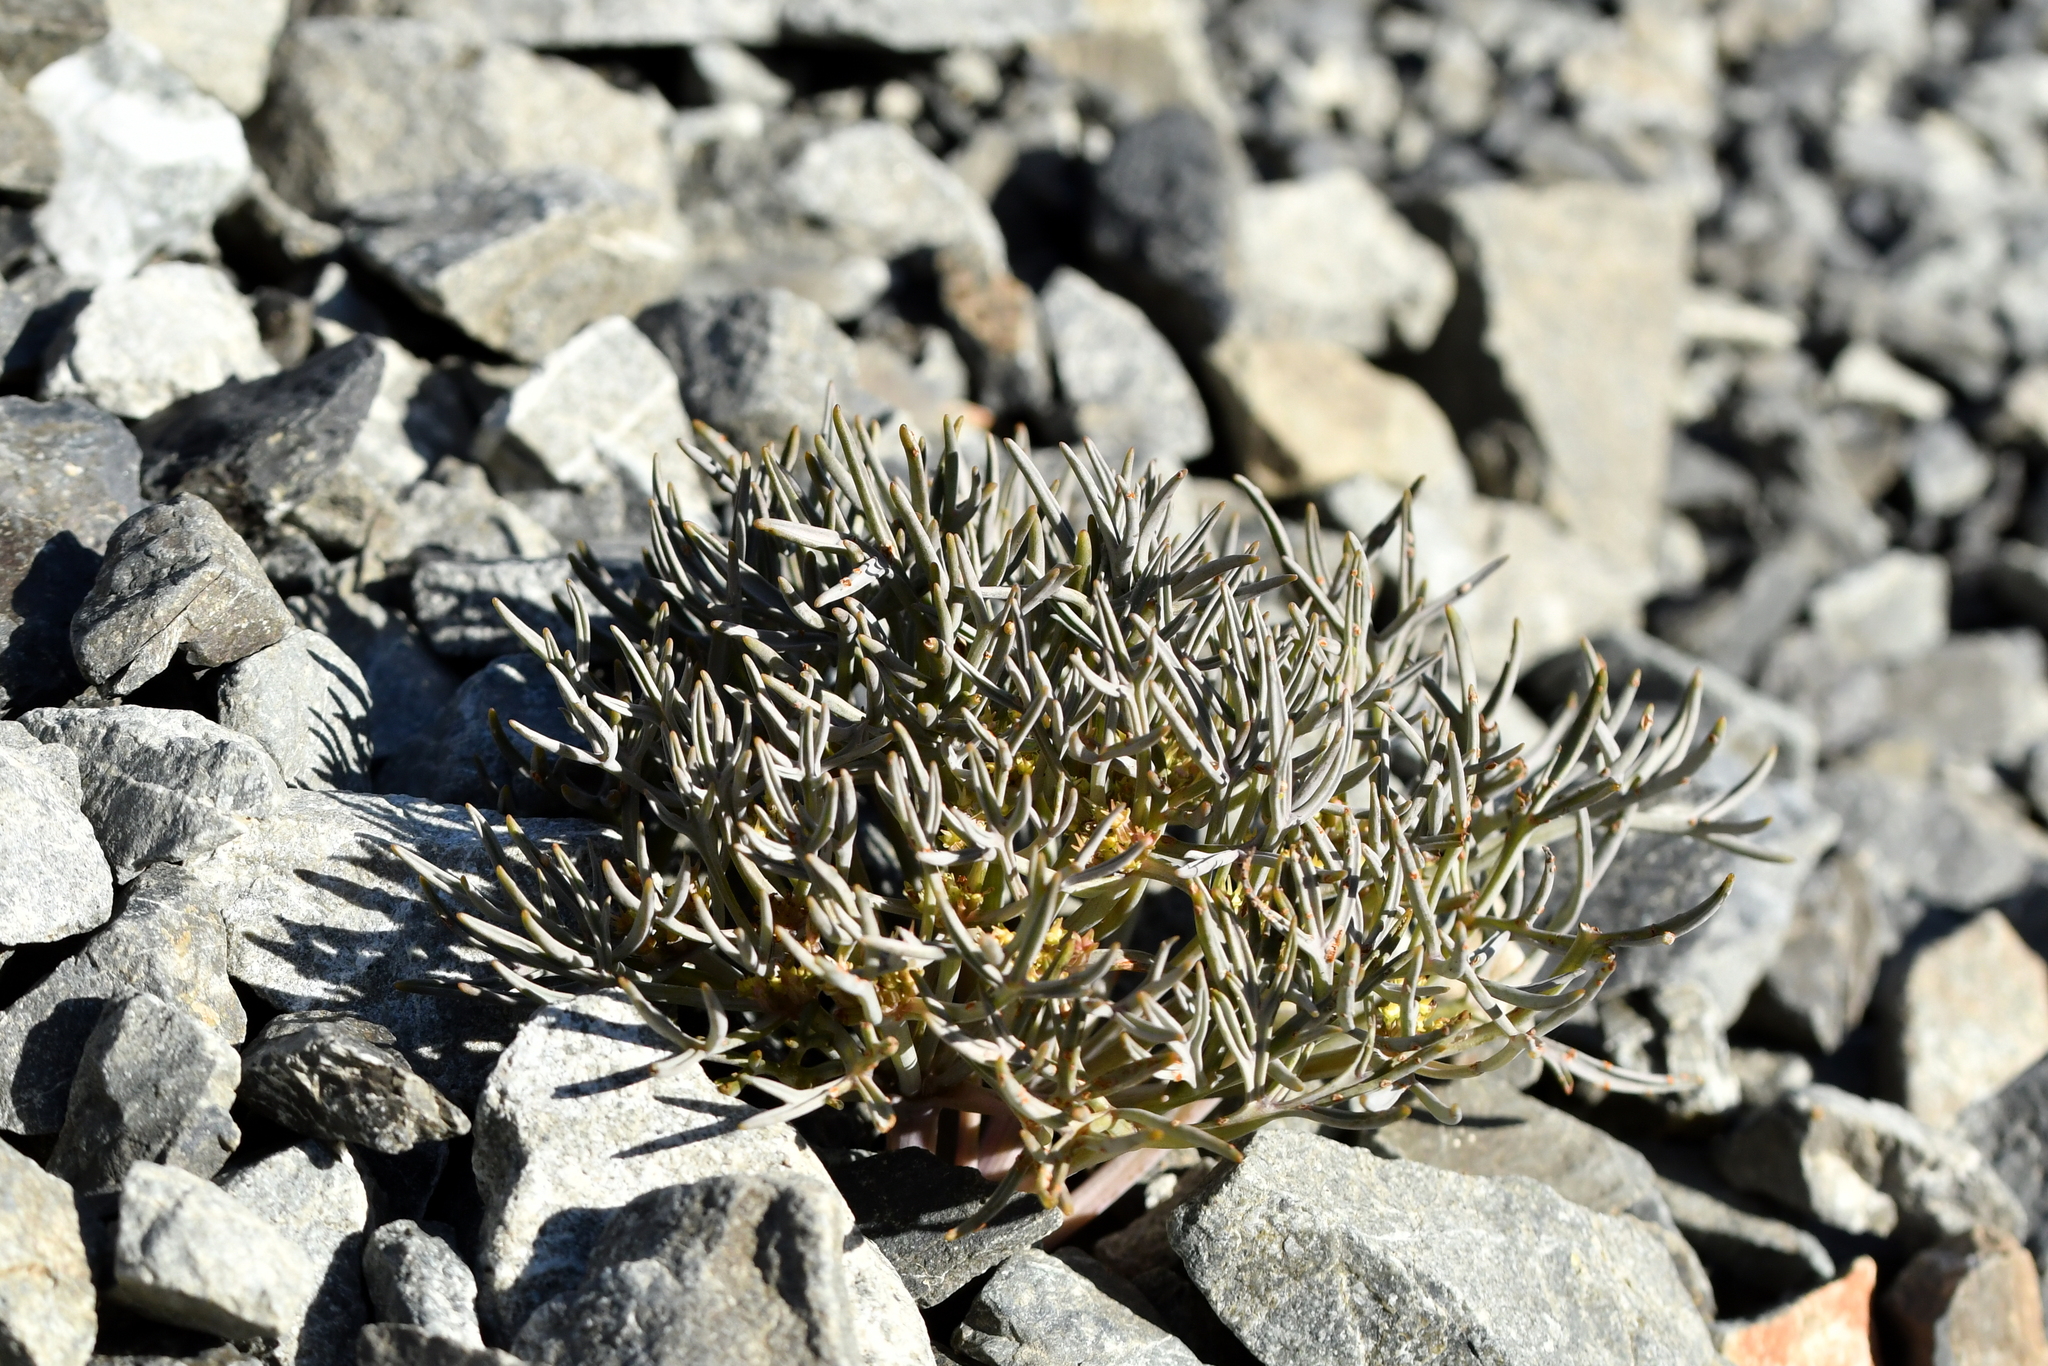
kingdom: Plantae
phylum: Tracheophyta
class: Magnoliopsida
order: Apiales
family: Apiaceae
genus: Lignocarpa
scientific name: Lignocarpa carnosula
